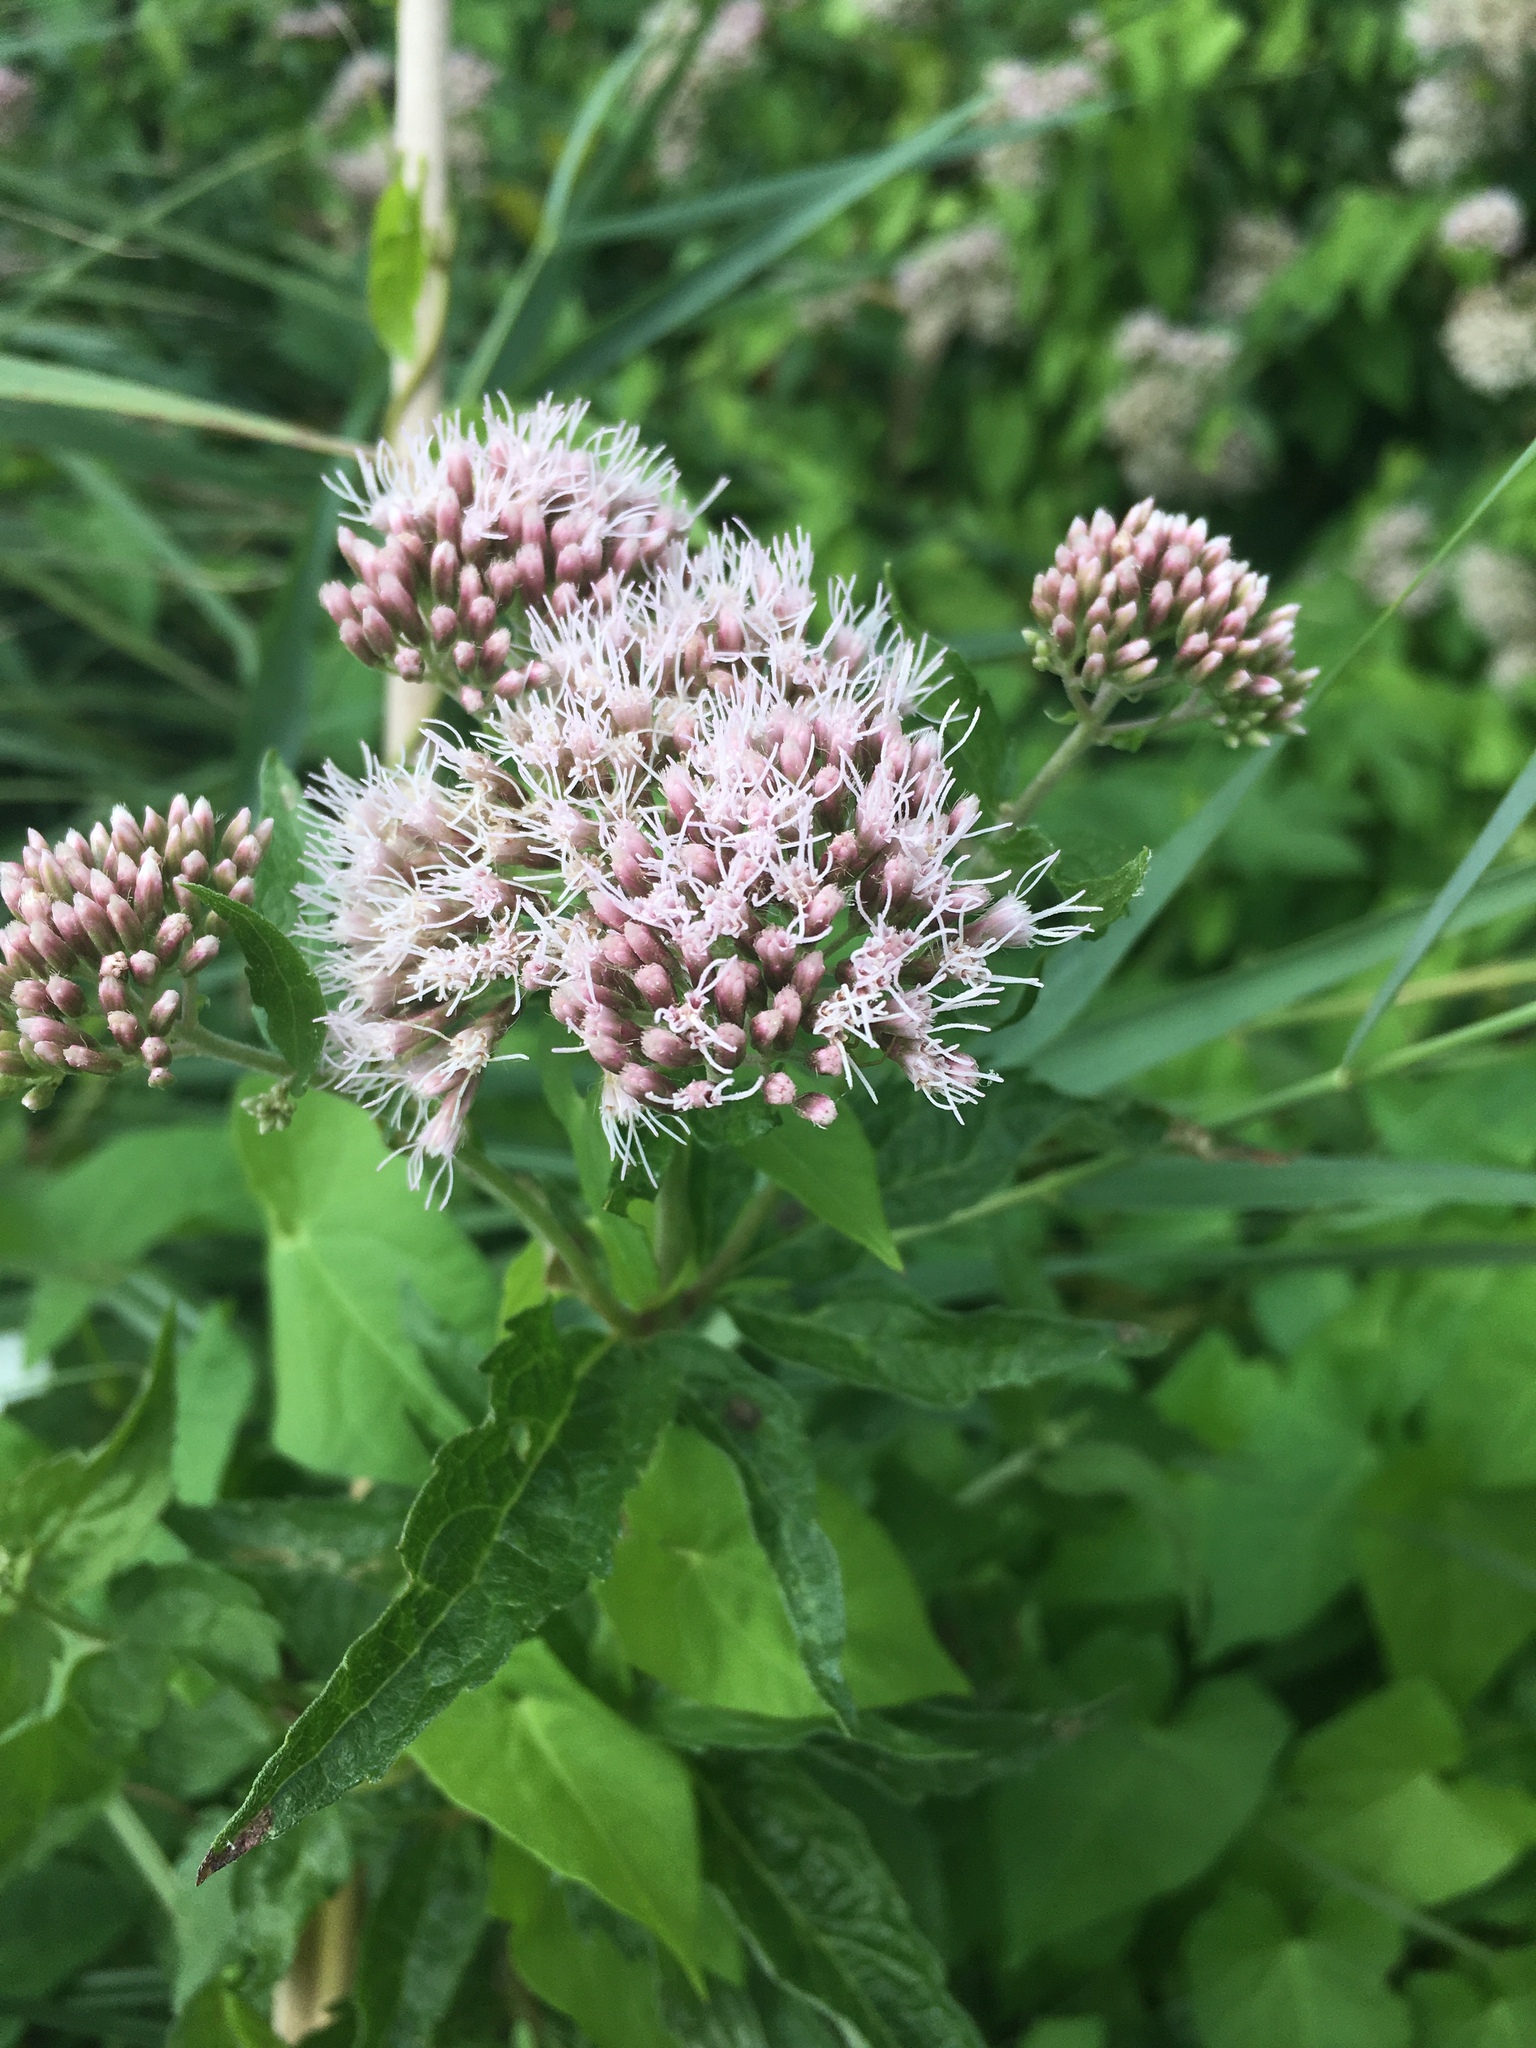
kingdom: Plantae
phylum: Tracheophyta
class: Magnoliopsida
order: Asterales
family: Asteraceae
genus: Eupatorium
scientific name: Eupatorium cannabinum
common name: Hemp-agrimony
